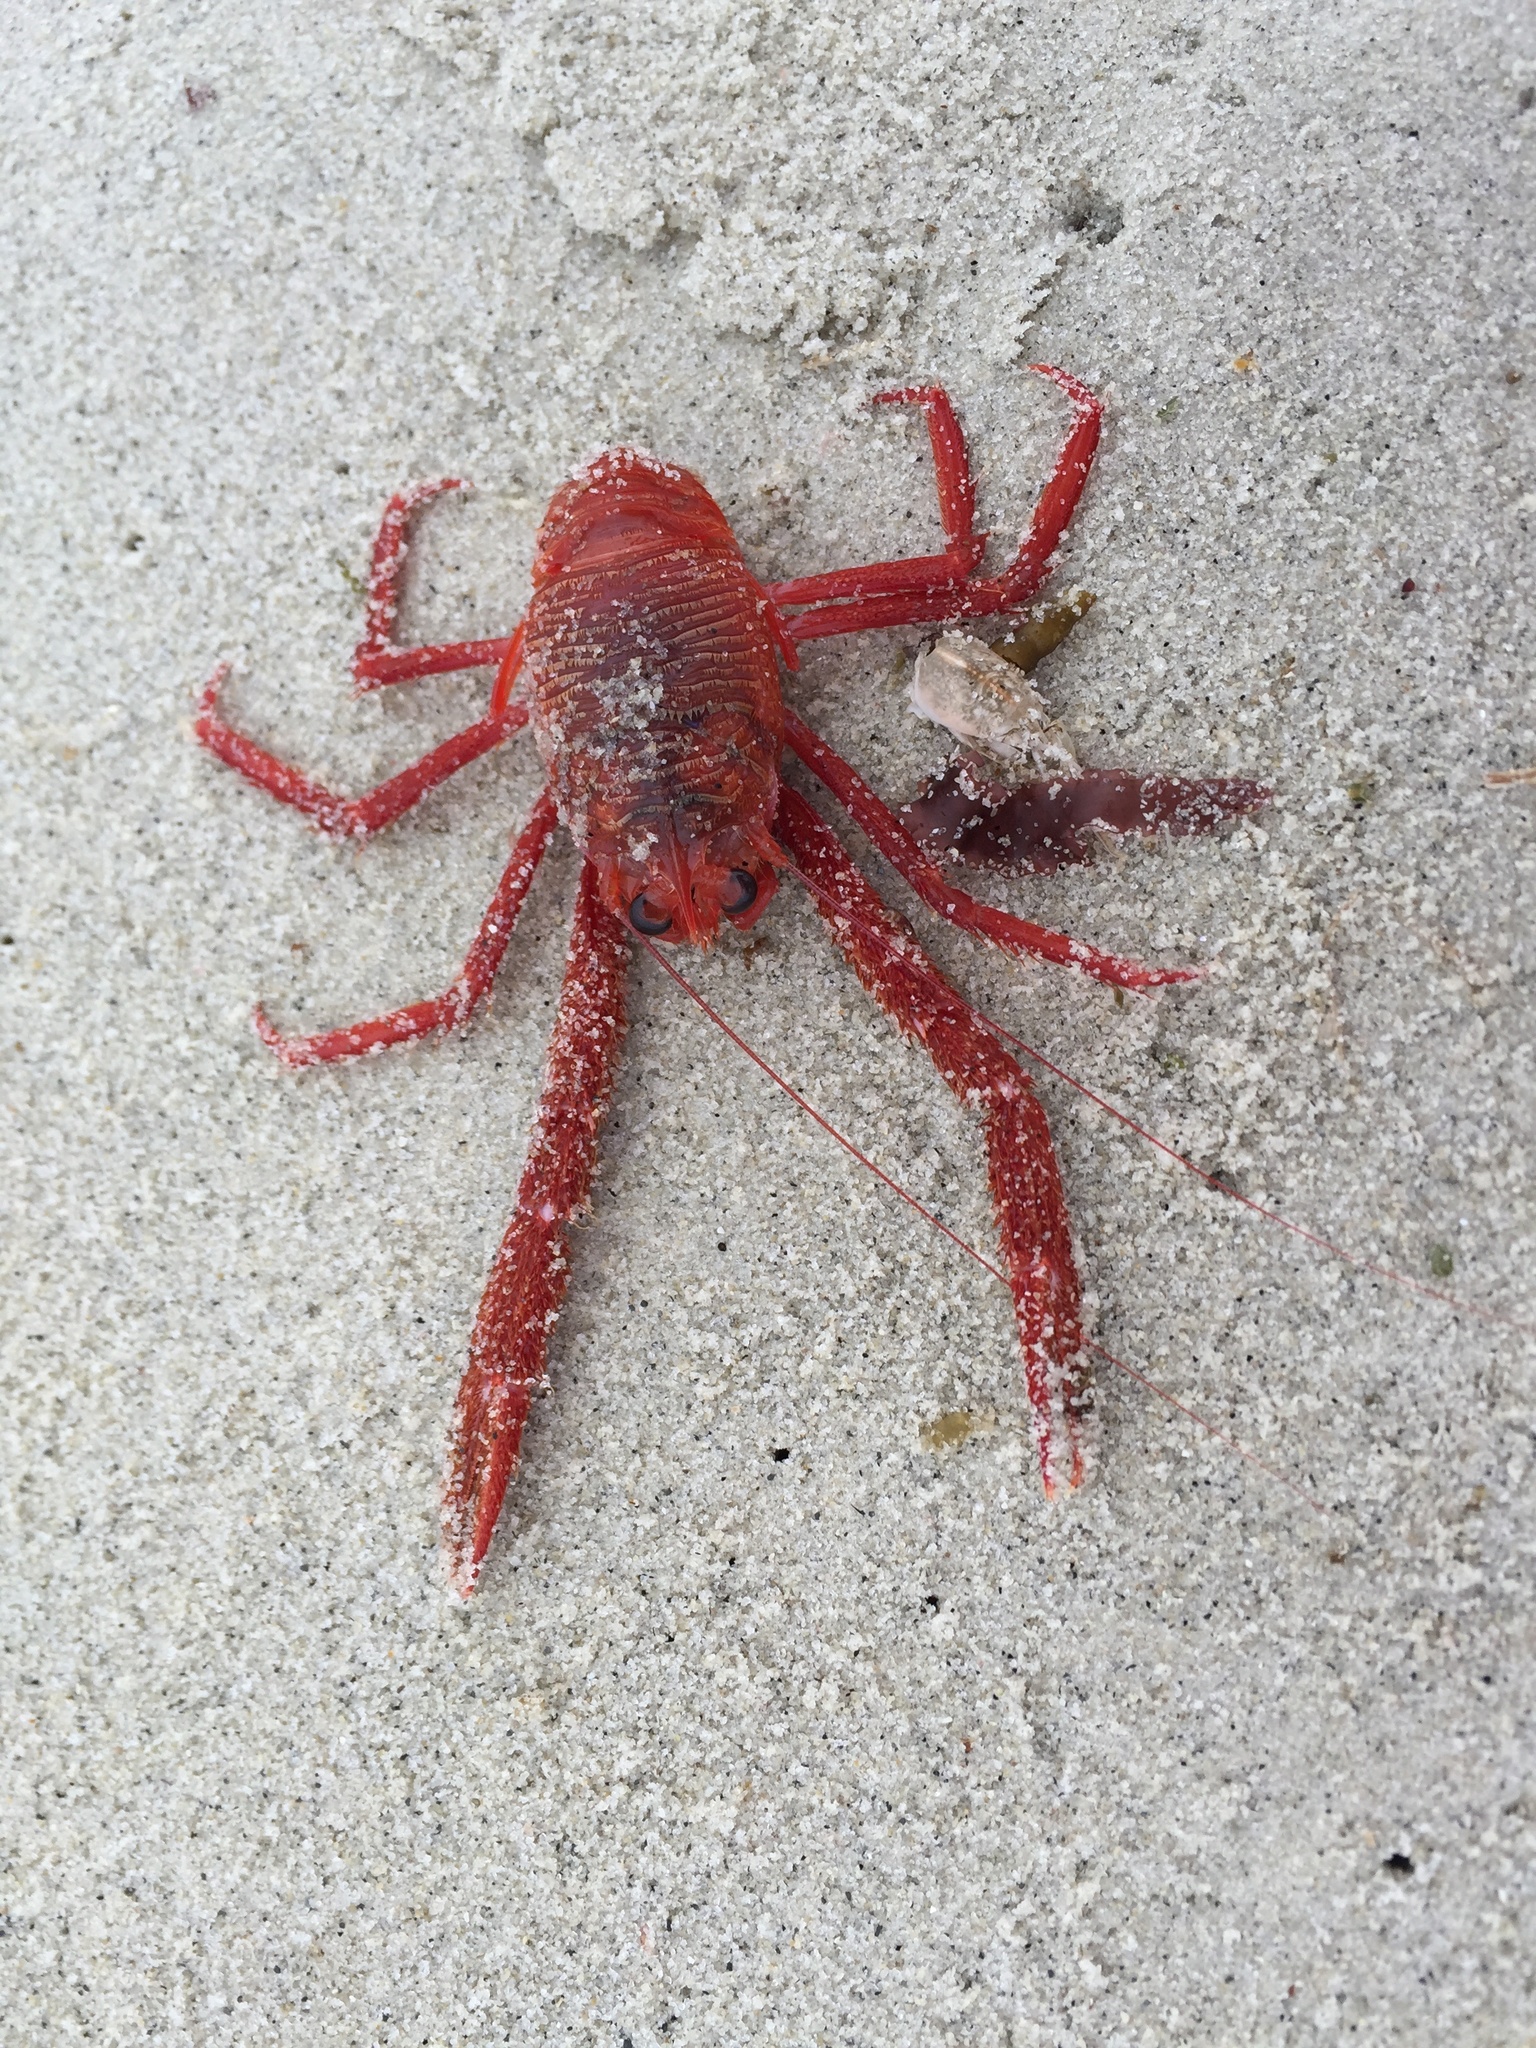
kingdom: Animalia
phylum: Arthropoda
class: Malacostraca
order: Decapoda
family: Munididae
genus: Grimothea
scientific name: Grimothea planipes
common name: Pelagic red crab
